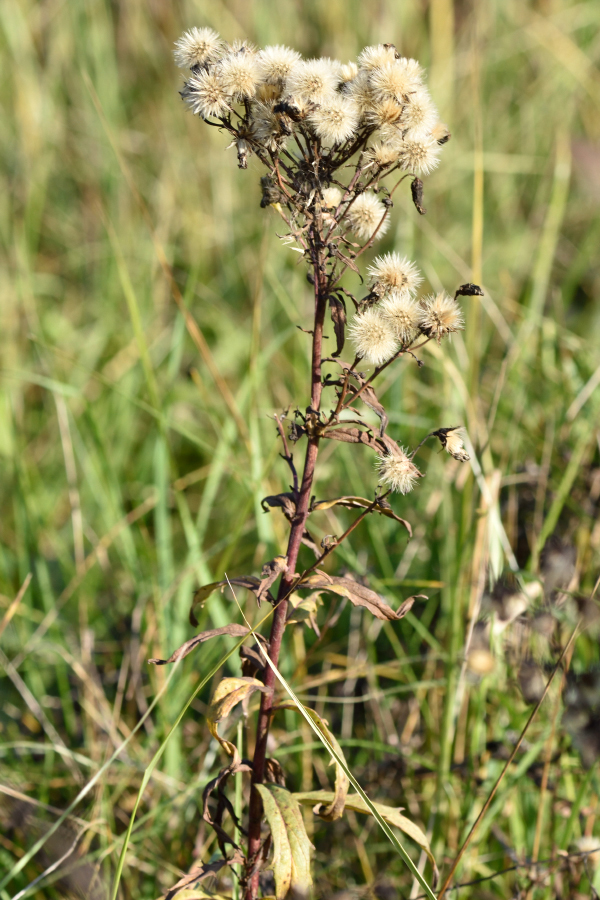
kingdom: Plantae
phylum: Tracheophyta
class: Magnoliopsida
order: Asterales
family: Asteraceae
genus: Hieracium
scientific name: Hieracium umbellatum
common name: Northern hawkweed
